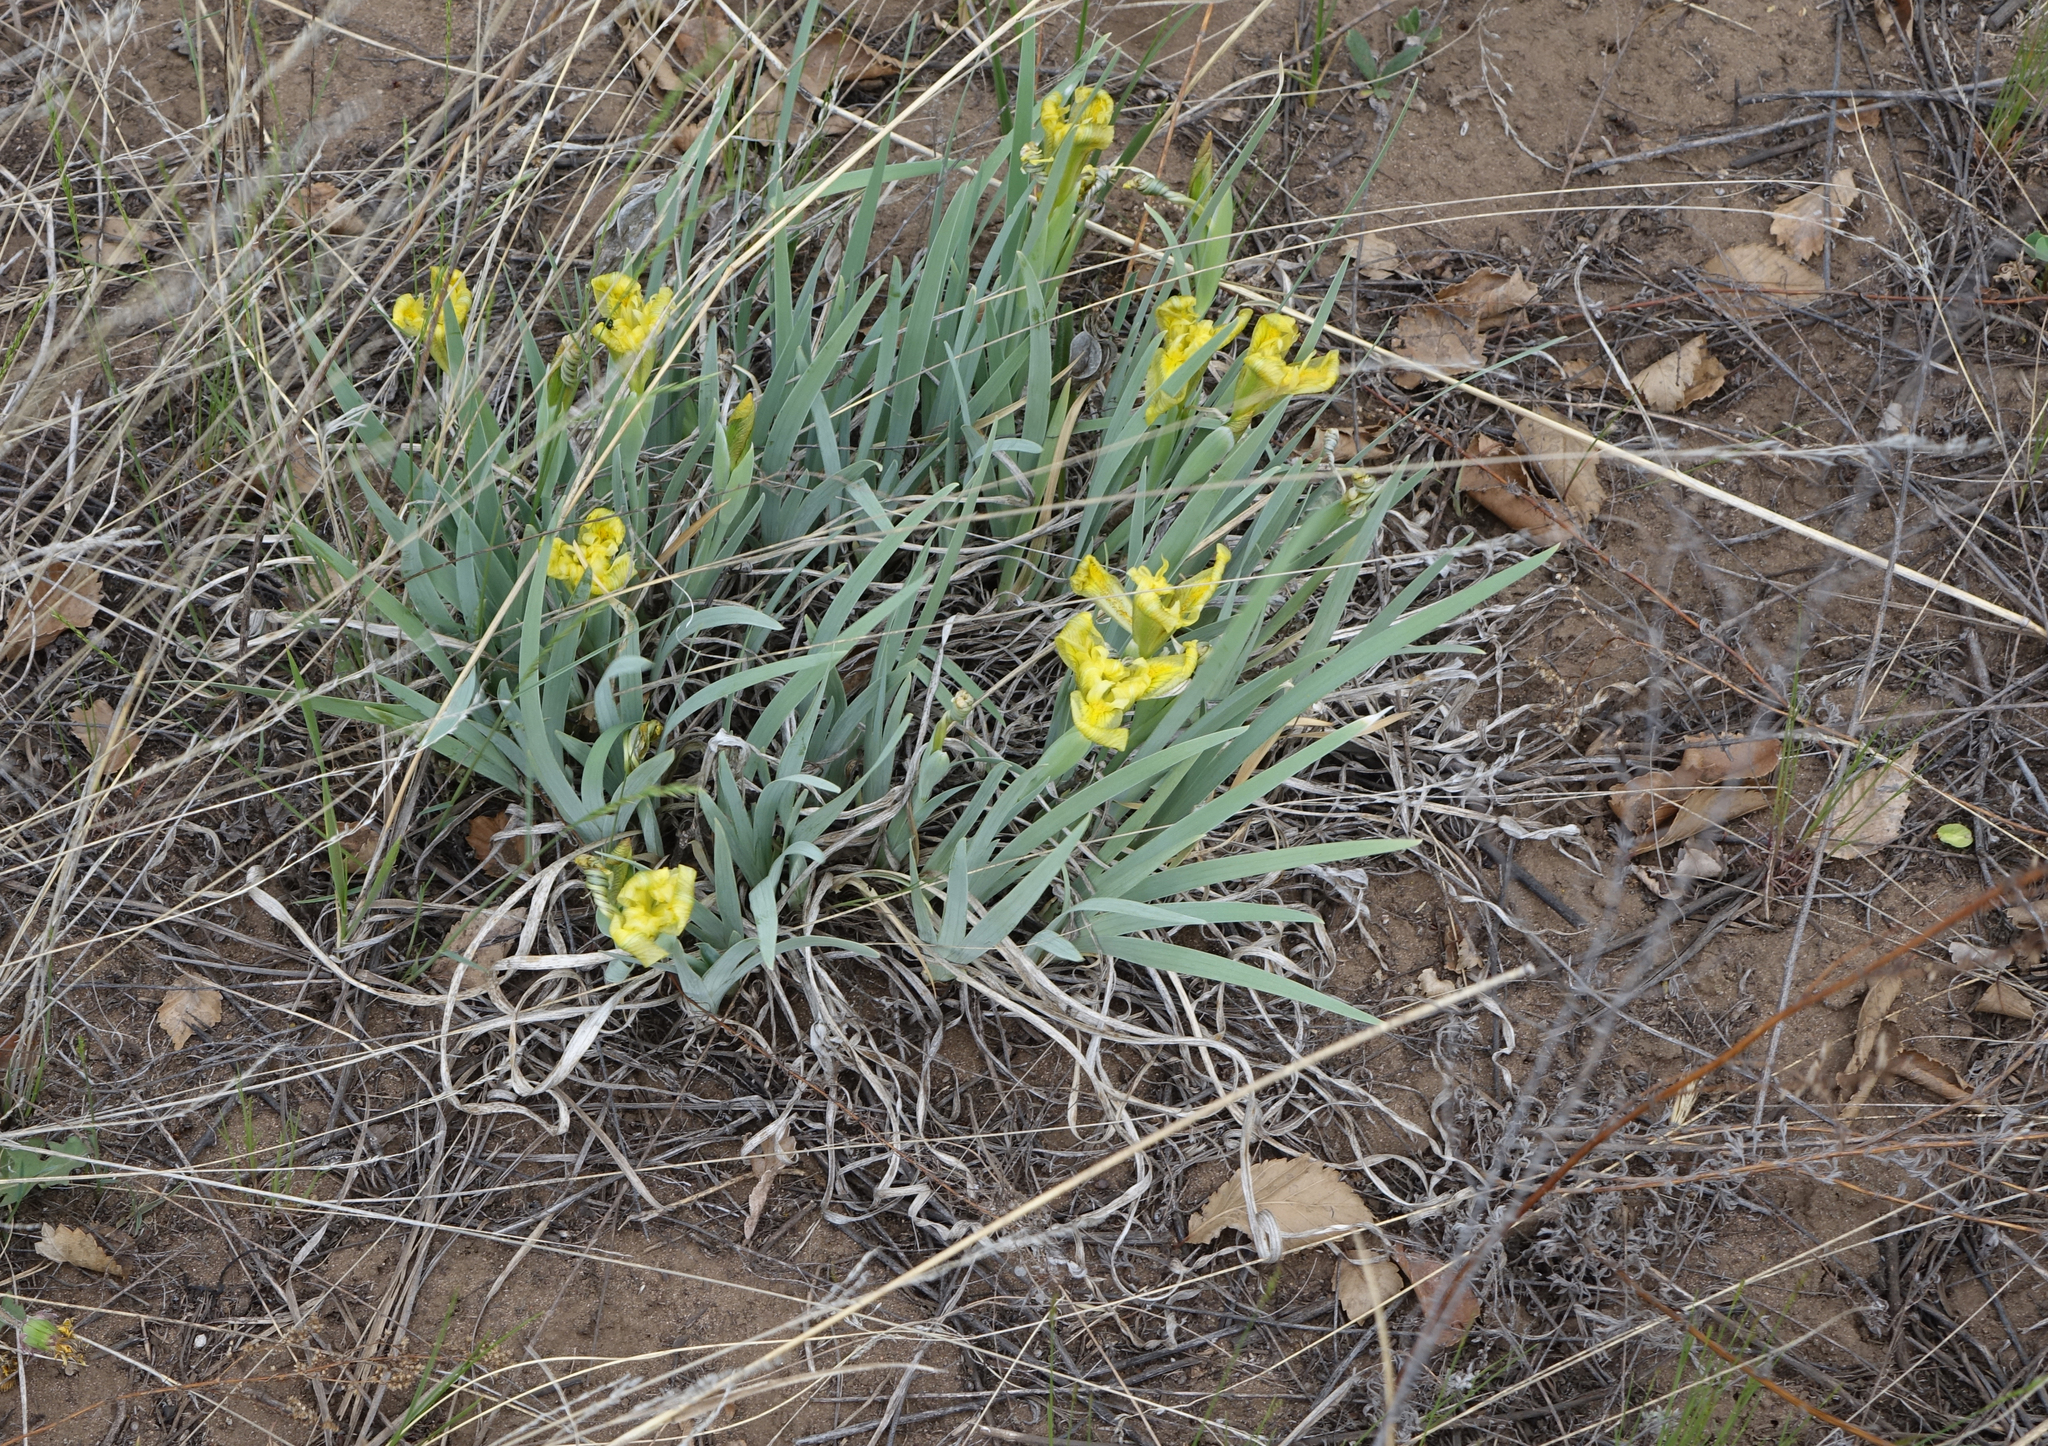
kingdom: Plantae
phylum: Tracheophyta
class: Liliopsida
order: Asparagales
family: Iridaceae
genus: Iris
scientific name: Iris humilis
